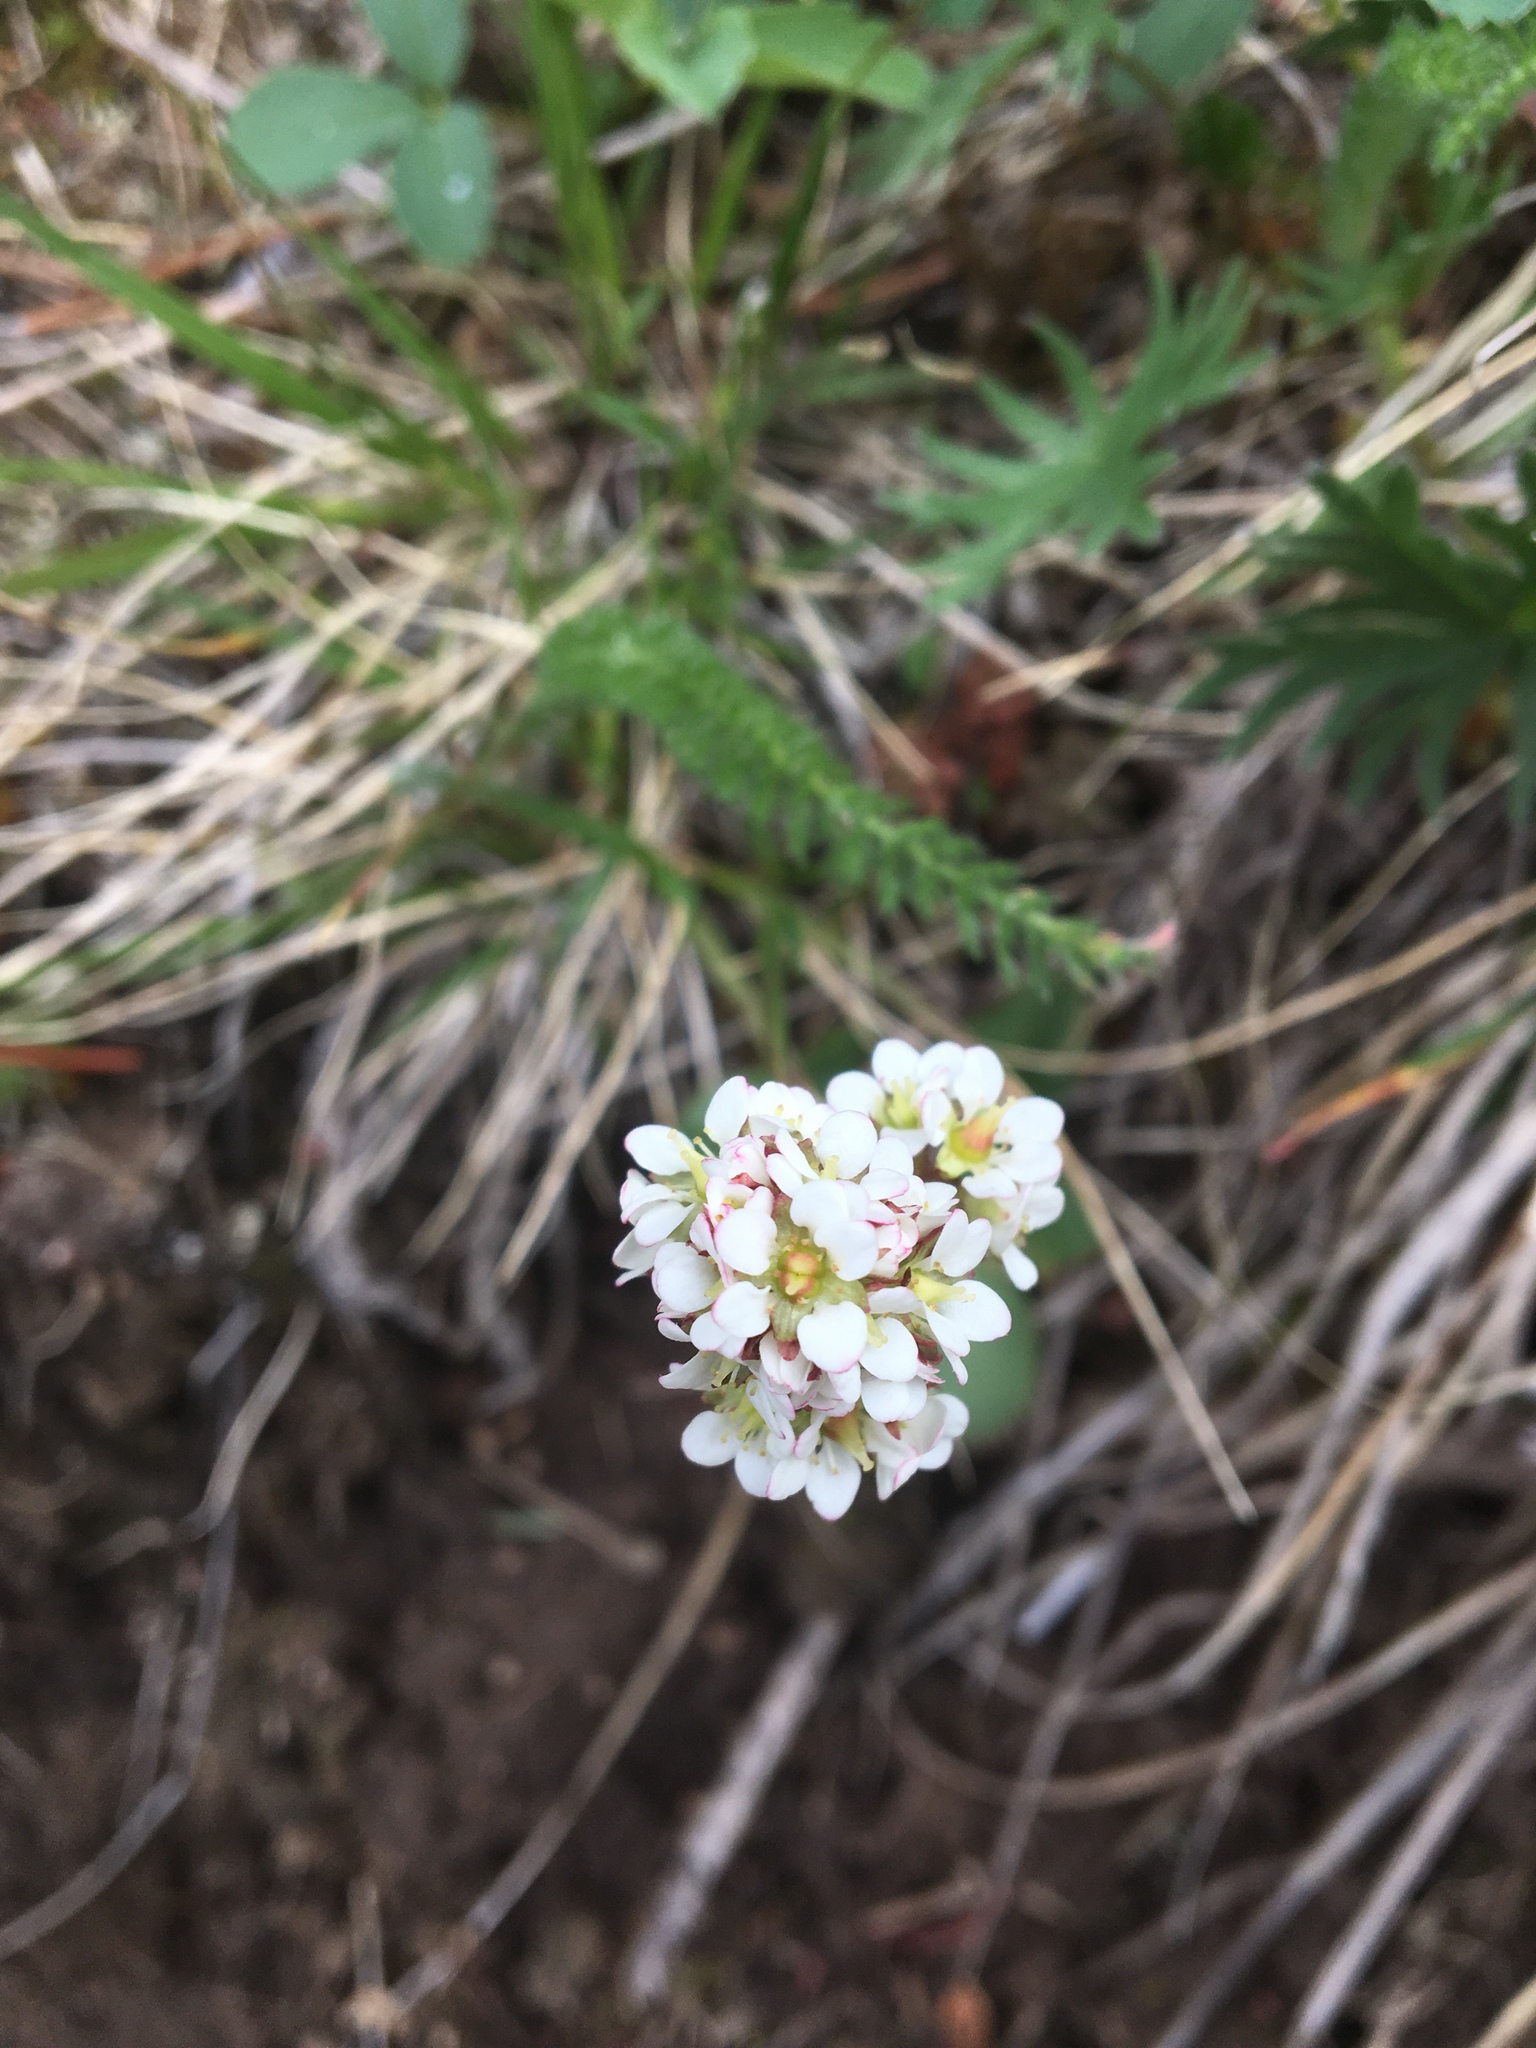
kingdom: Plantae
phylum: Tracheophyta
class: Magnoliopsida
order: Saxifragales
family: Saxifragaceae
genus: Micranthes
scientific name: Micranthes occidentalis
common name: Alberta saxifrage
